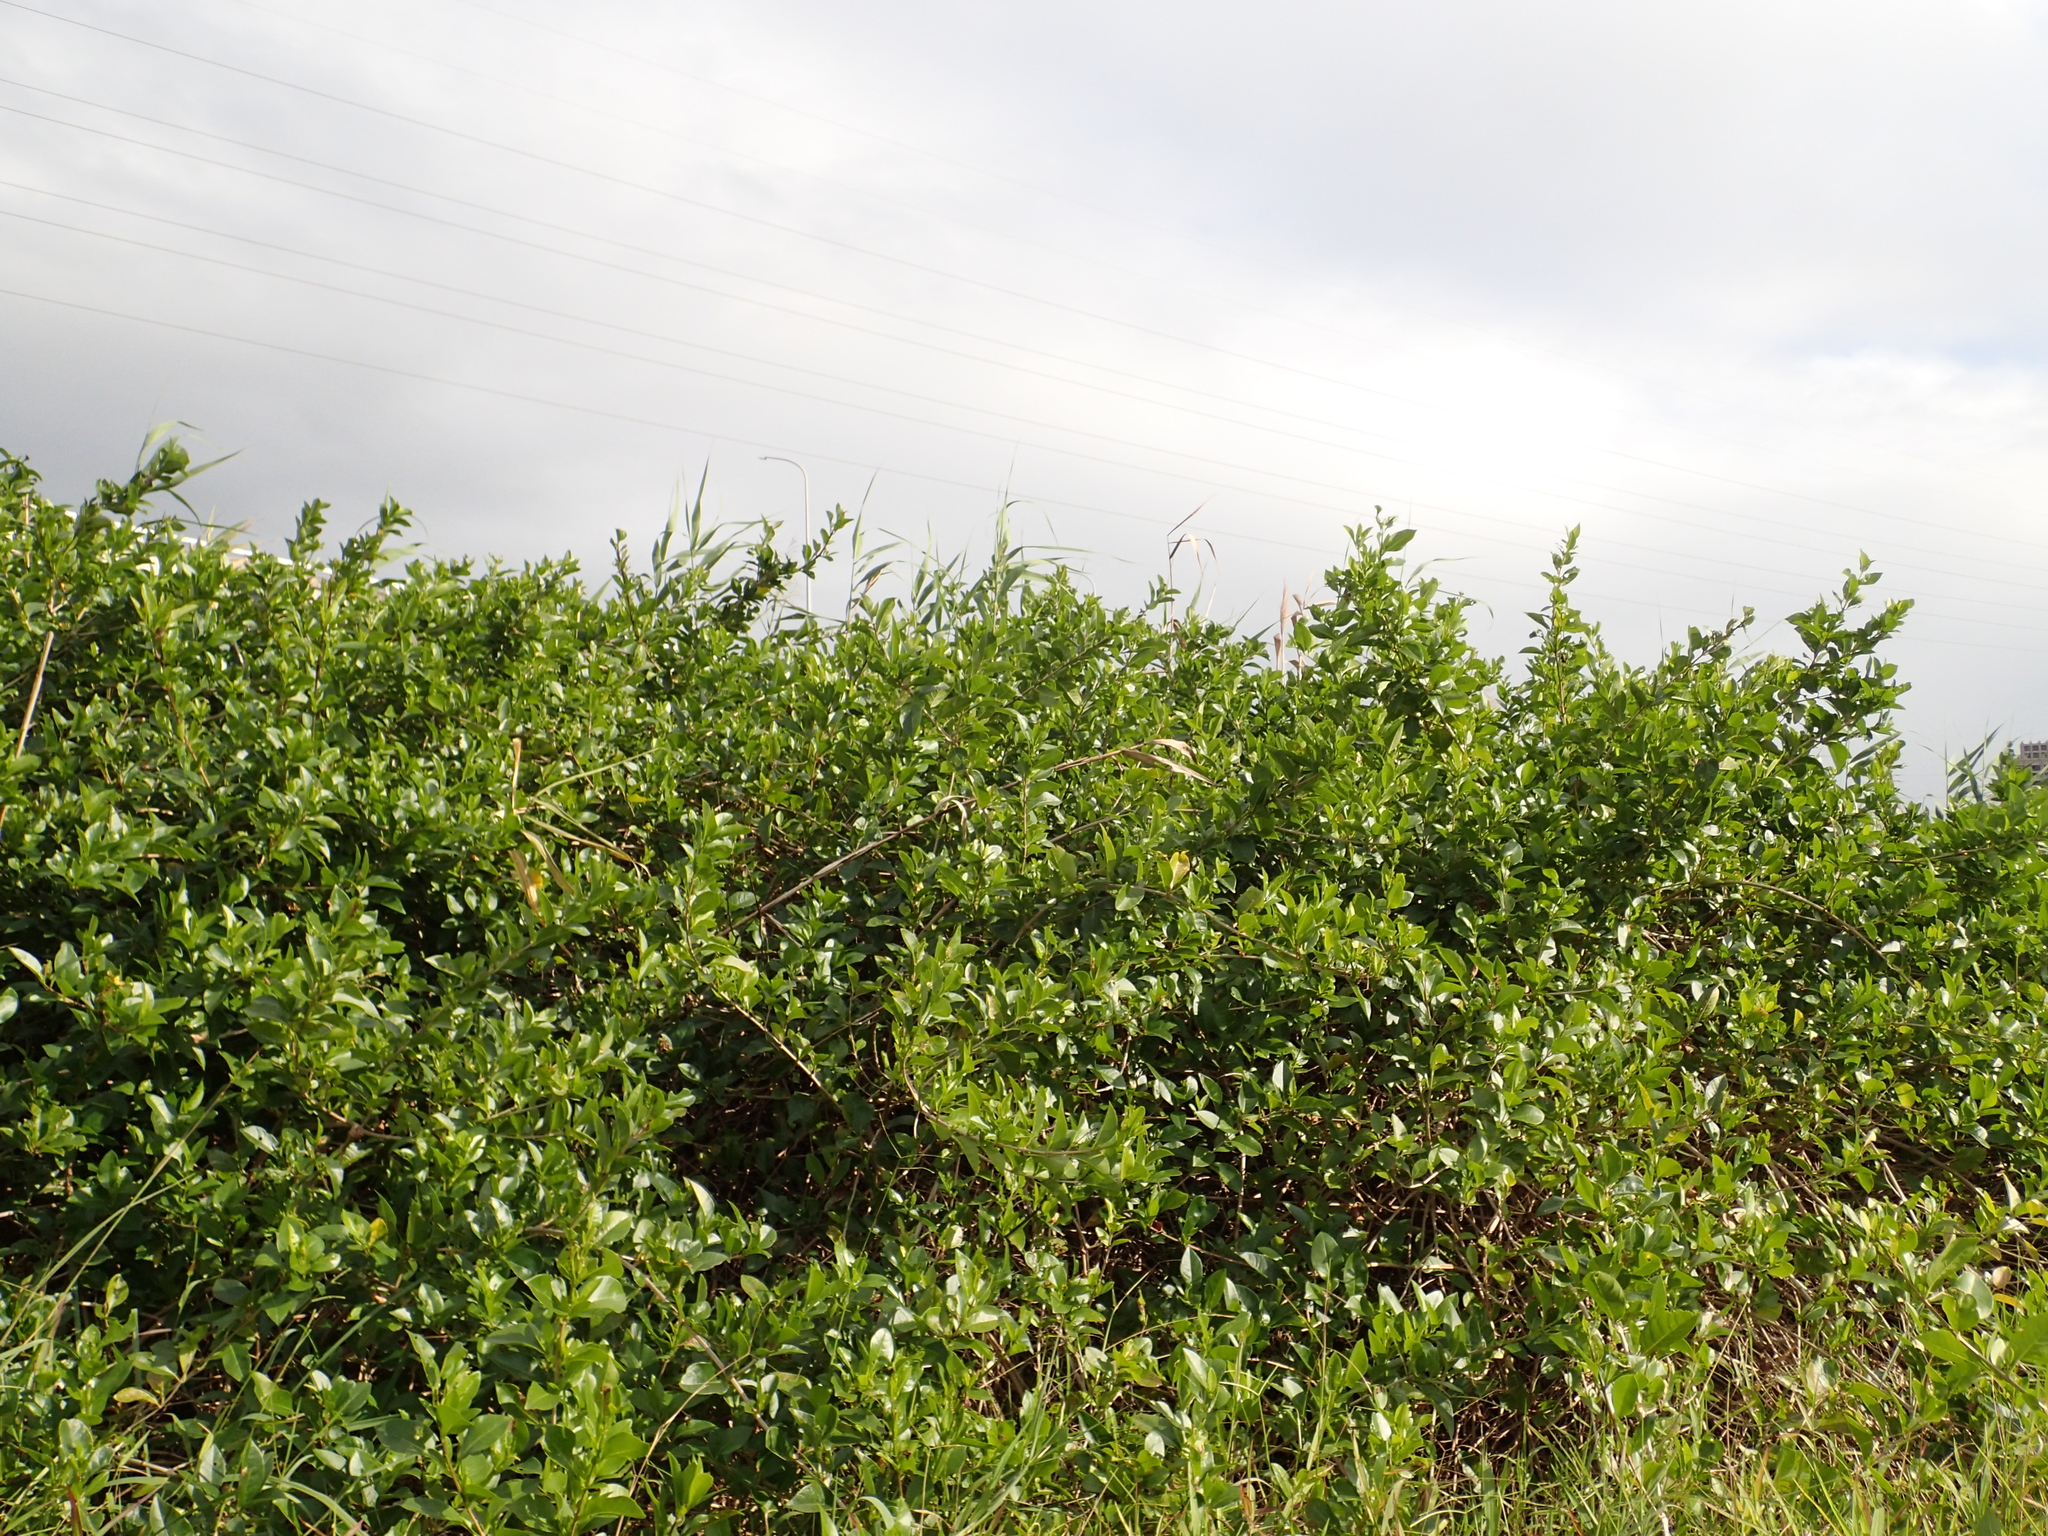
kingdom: Plantae
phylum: Tracheophyta
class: Magnoliopsida
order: Lamiales
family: Lamiaceae
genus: Volkameria
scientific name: Volkameria inermis
